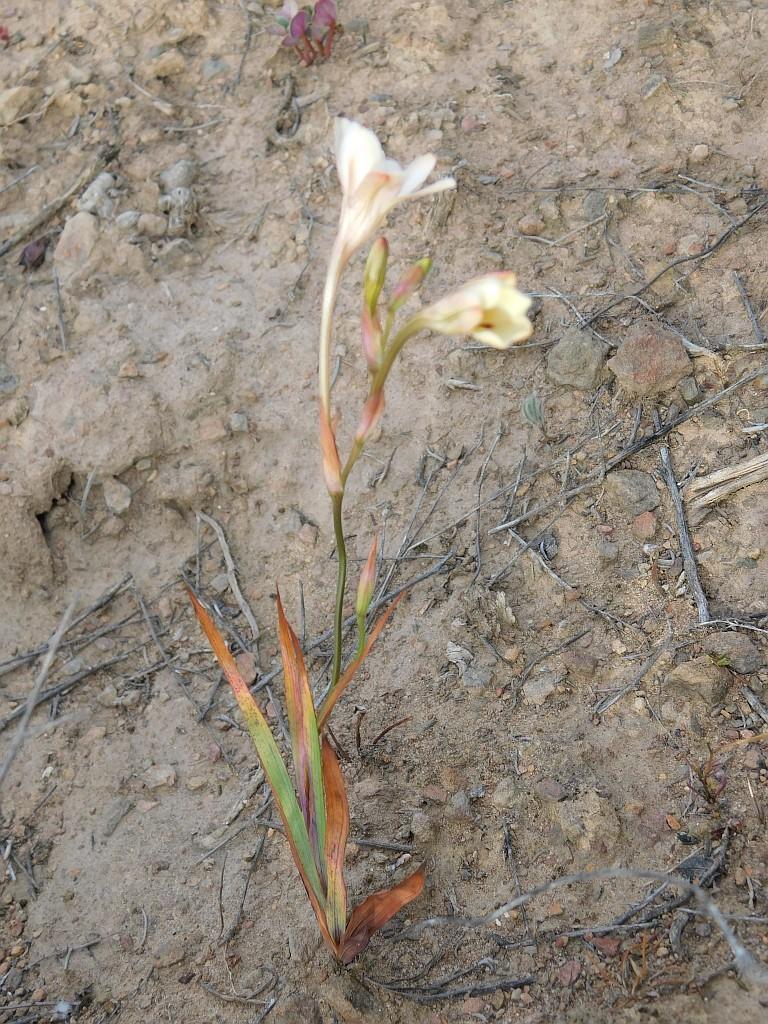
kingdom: Plantae
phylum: Tracheophyta
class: Liliopsida
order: Asparagales
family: Iridaceae
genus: Tritonia
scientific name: Tritonia flabellifolia
